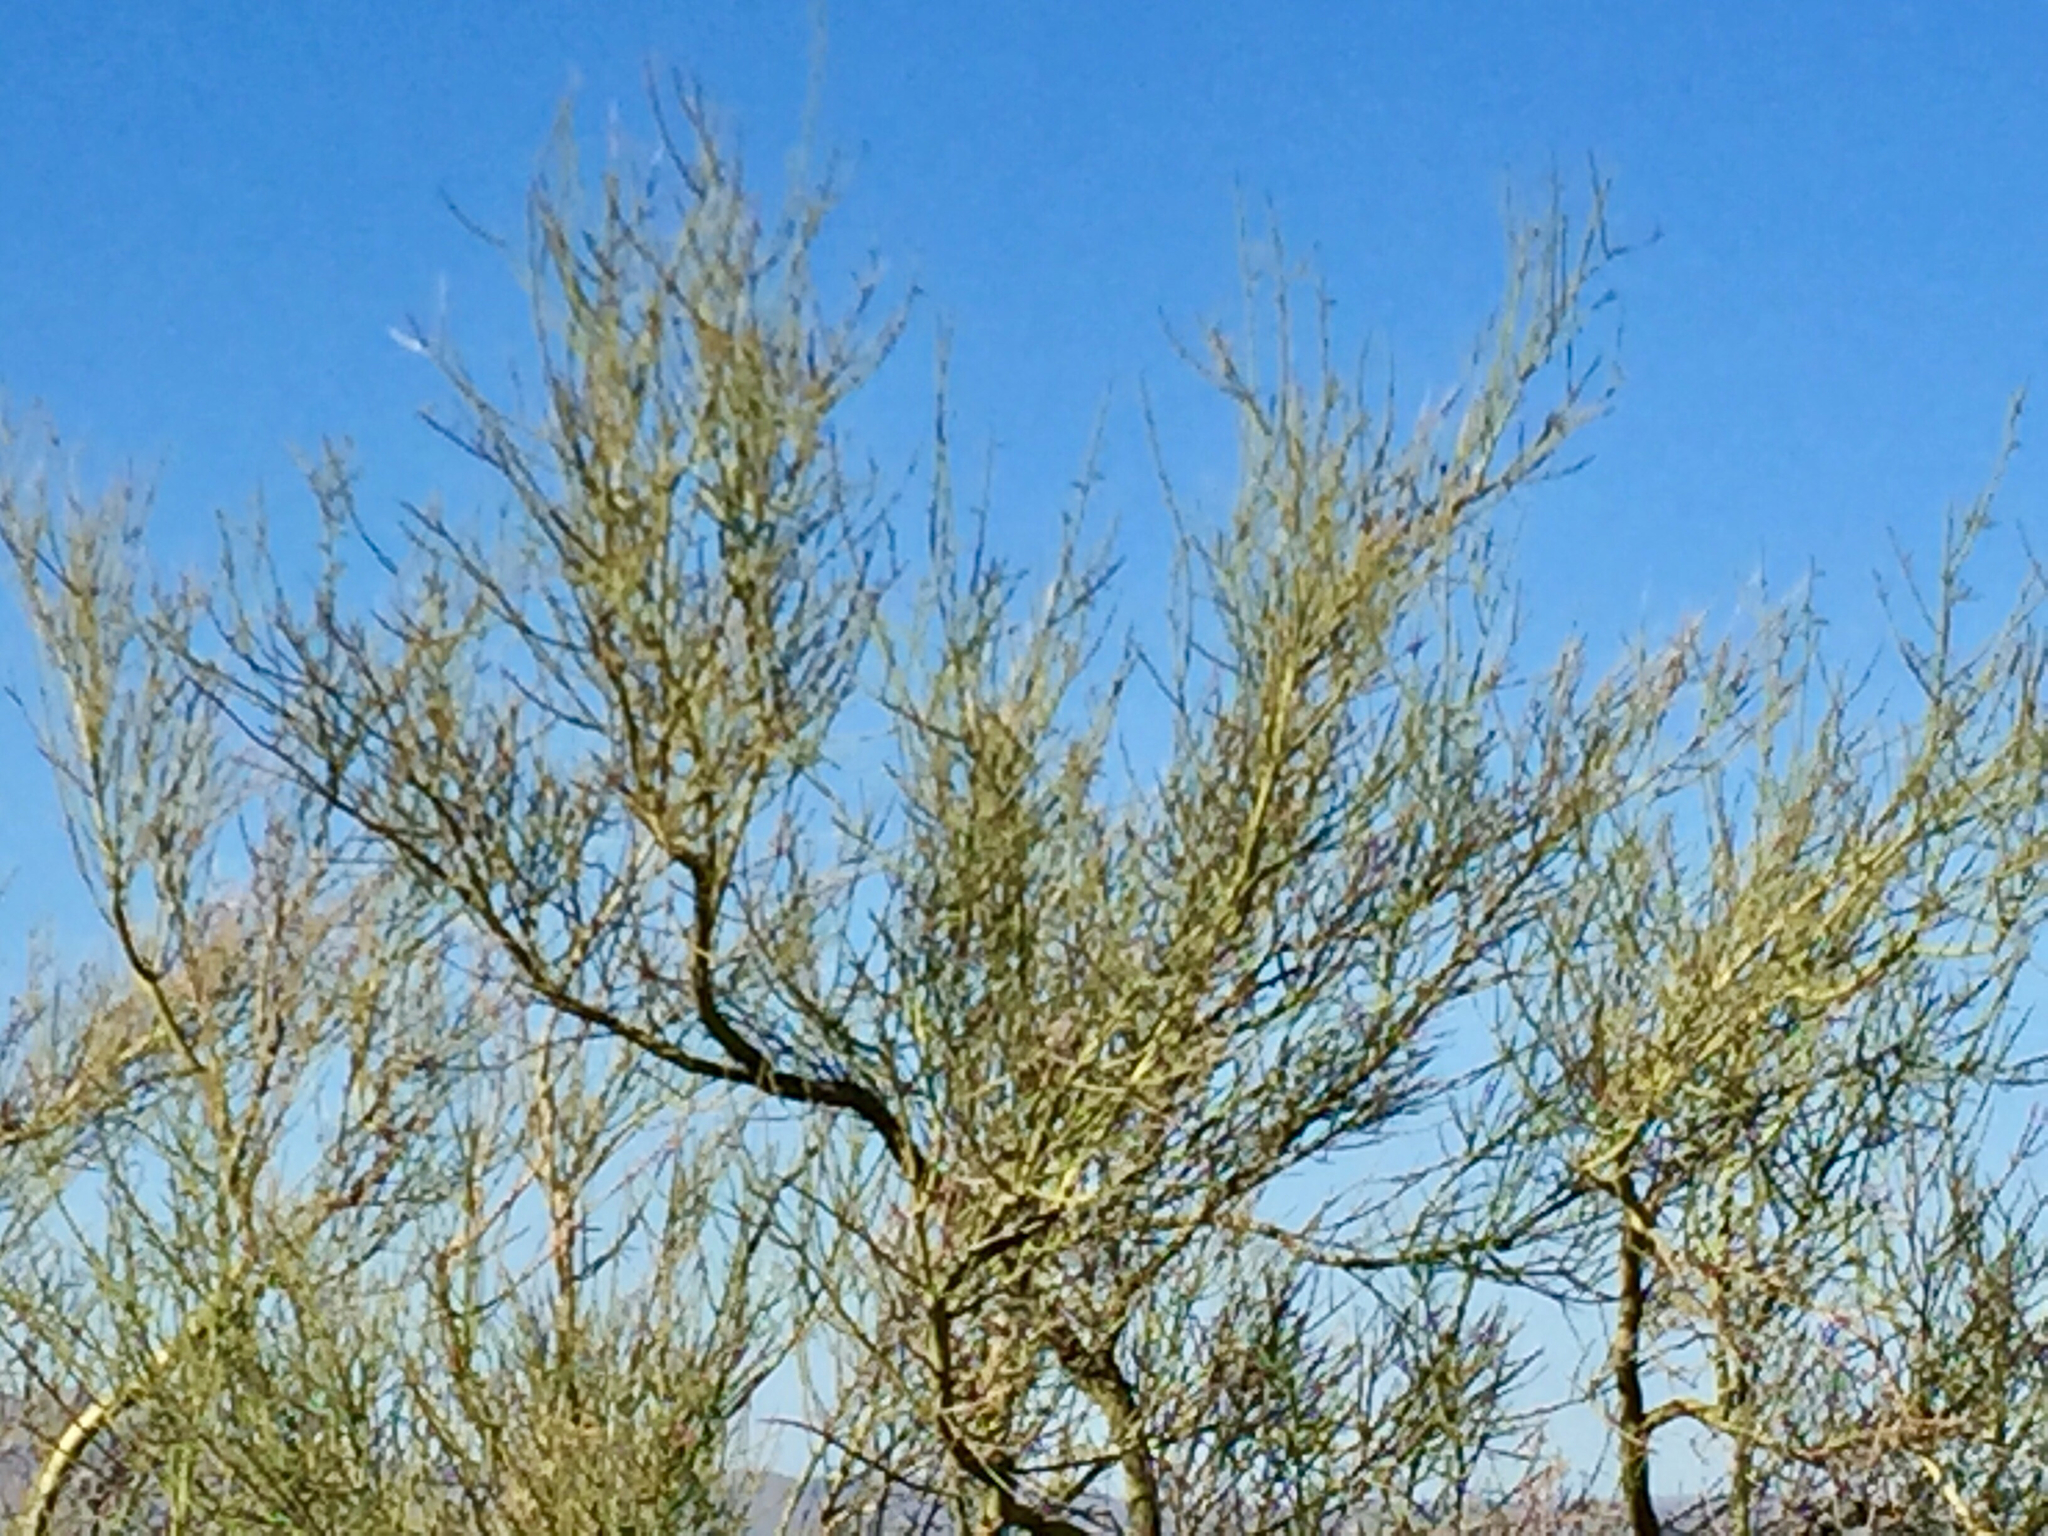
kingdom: Plantae
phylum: Tracheophyta
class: Magnoliopsida
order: Fabales
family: Fabaceae
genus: Parkinsonia
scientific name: Parkinsonia microphylla
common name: Yellow paloverde
